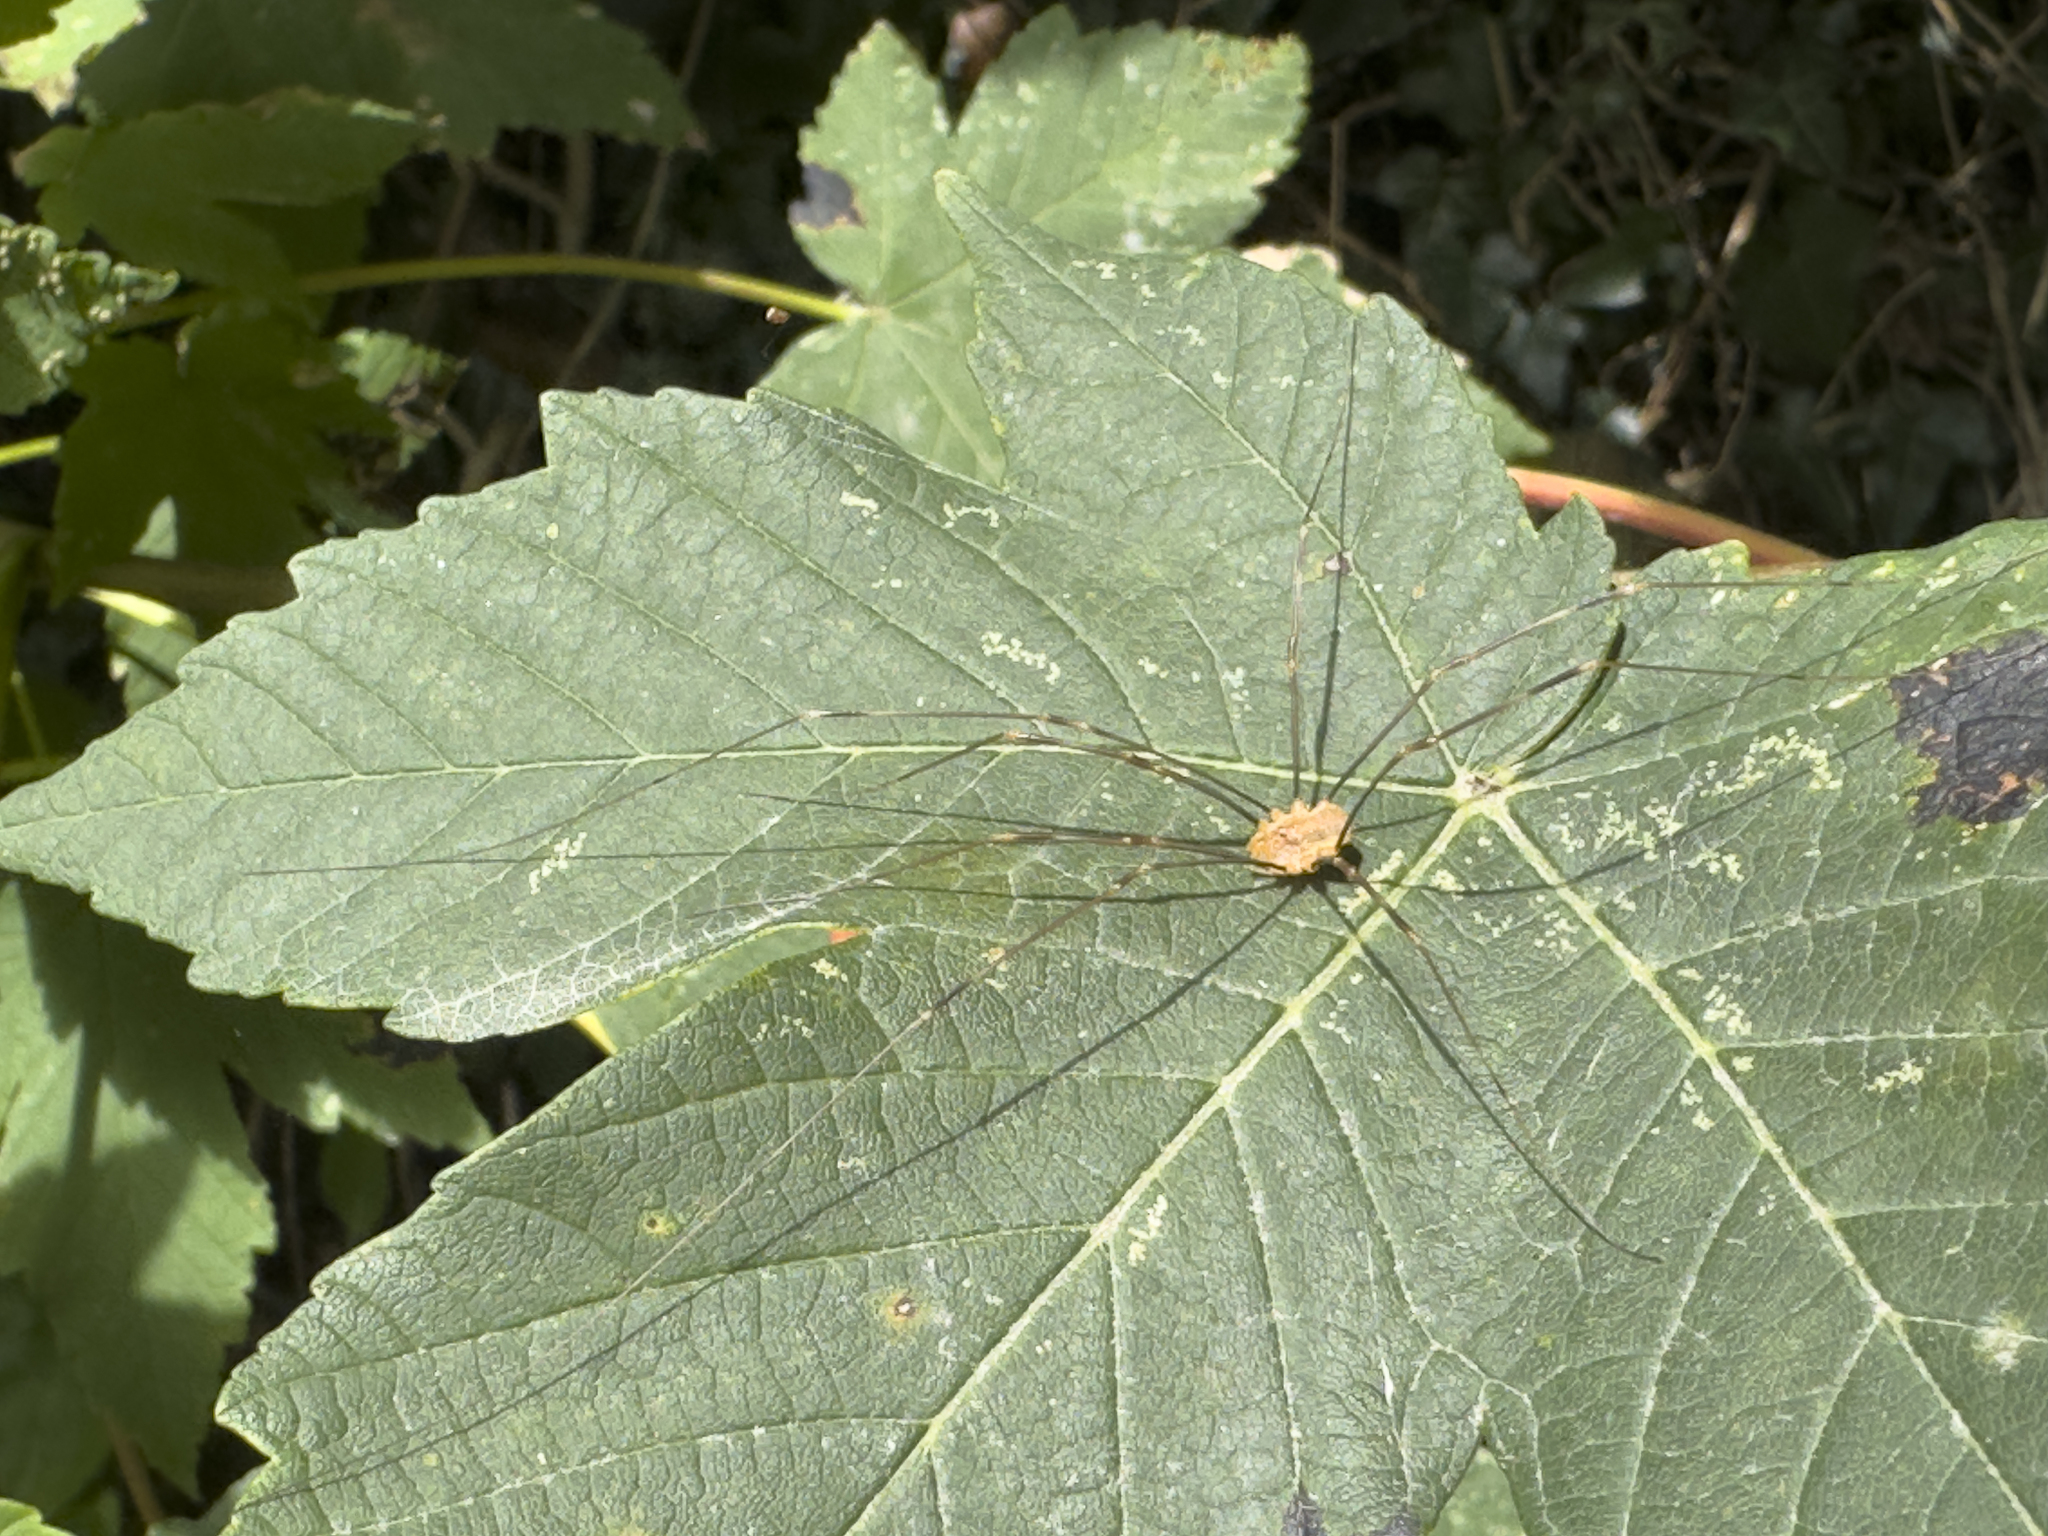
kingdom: Animalia
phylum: Arthropoda
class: Arachnida
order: Opiliones
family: Phalangiidae
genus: Opilio
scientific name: Opilio canestrinii
